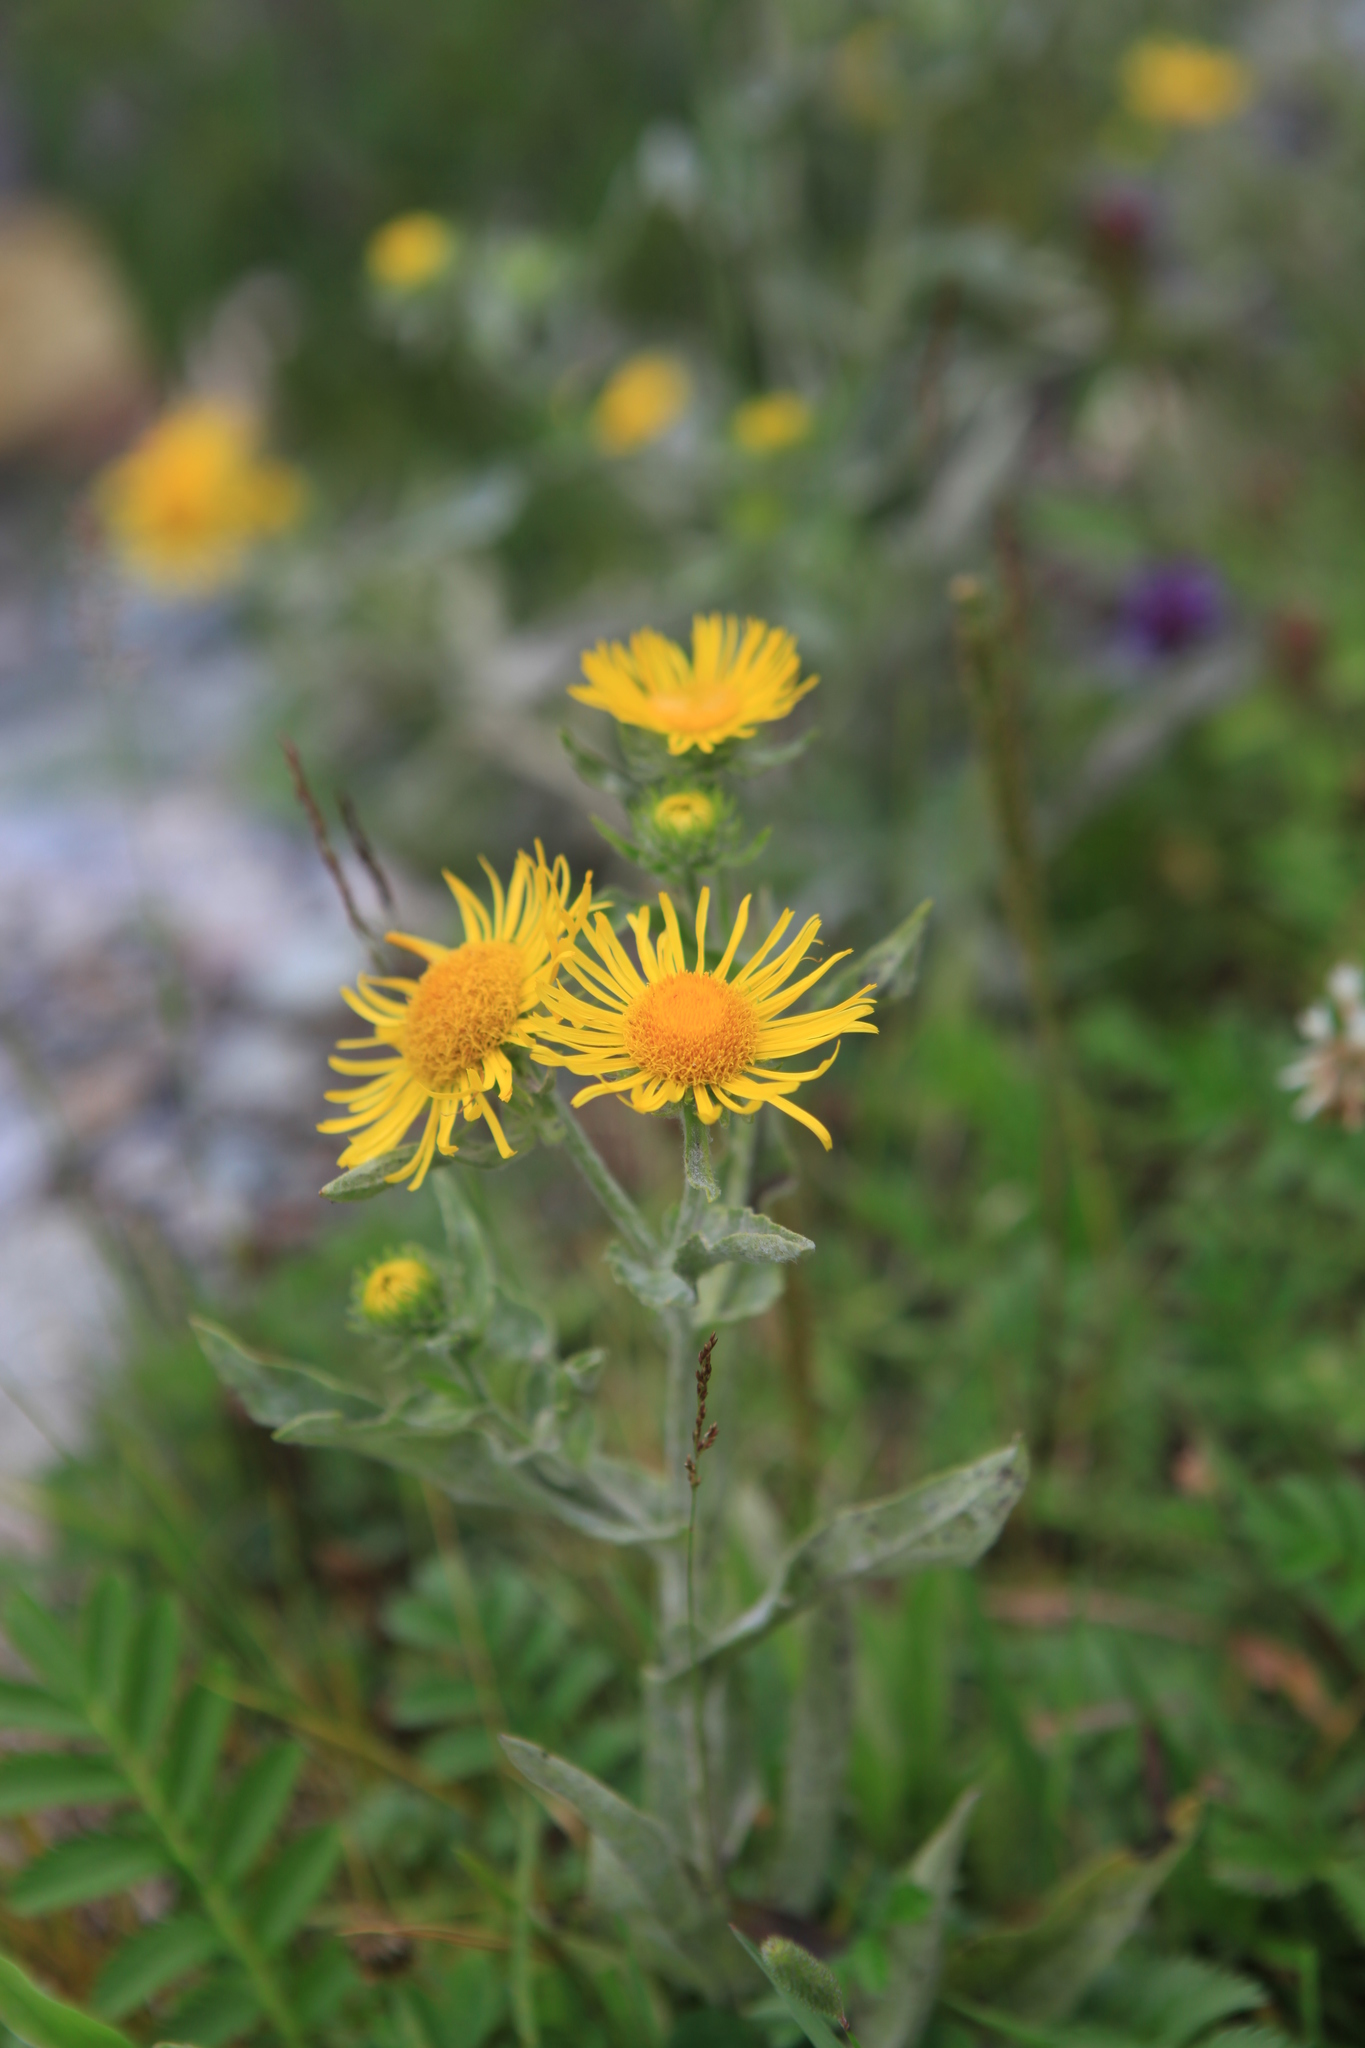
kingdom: Plantae
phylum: Tracheophyta
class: Magnoliopsida
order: Asterales
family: Asteraceae
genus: Pentanema
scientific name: Pentanema britannicum
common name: British elecampane
